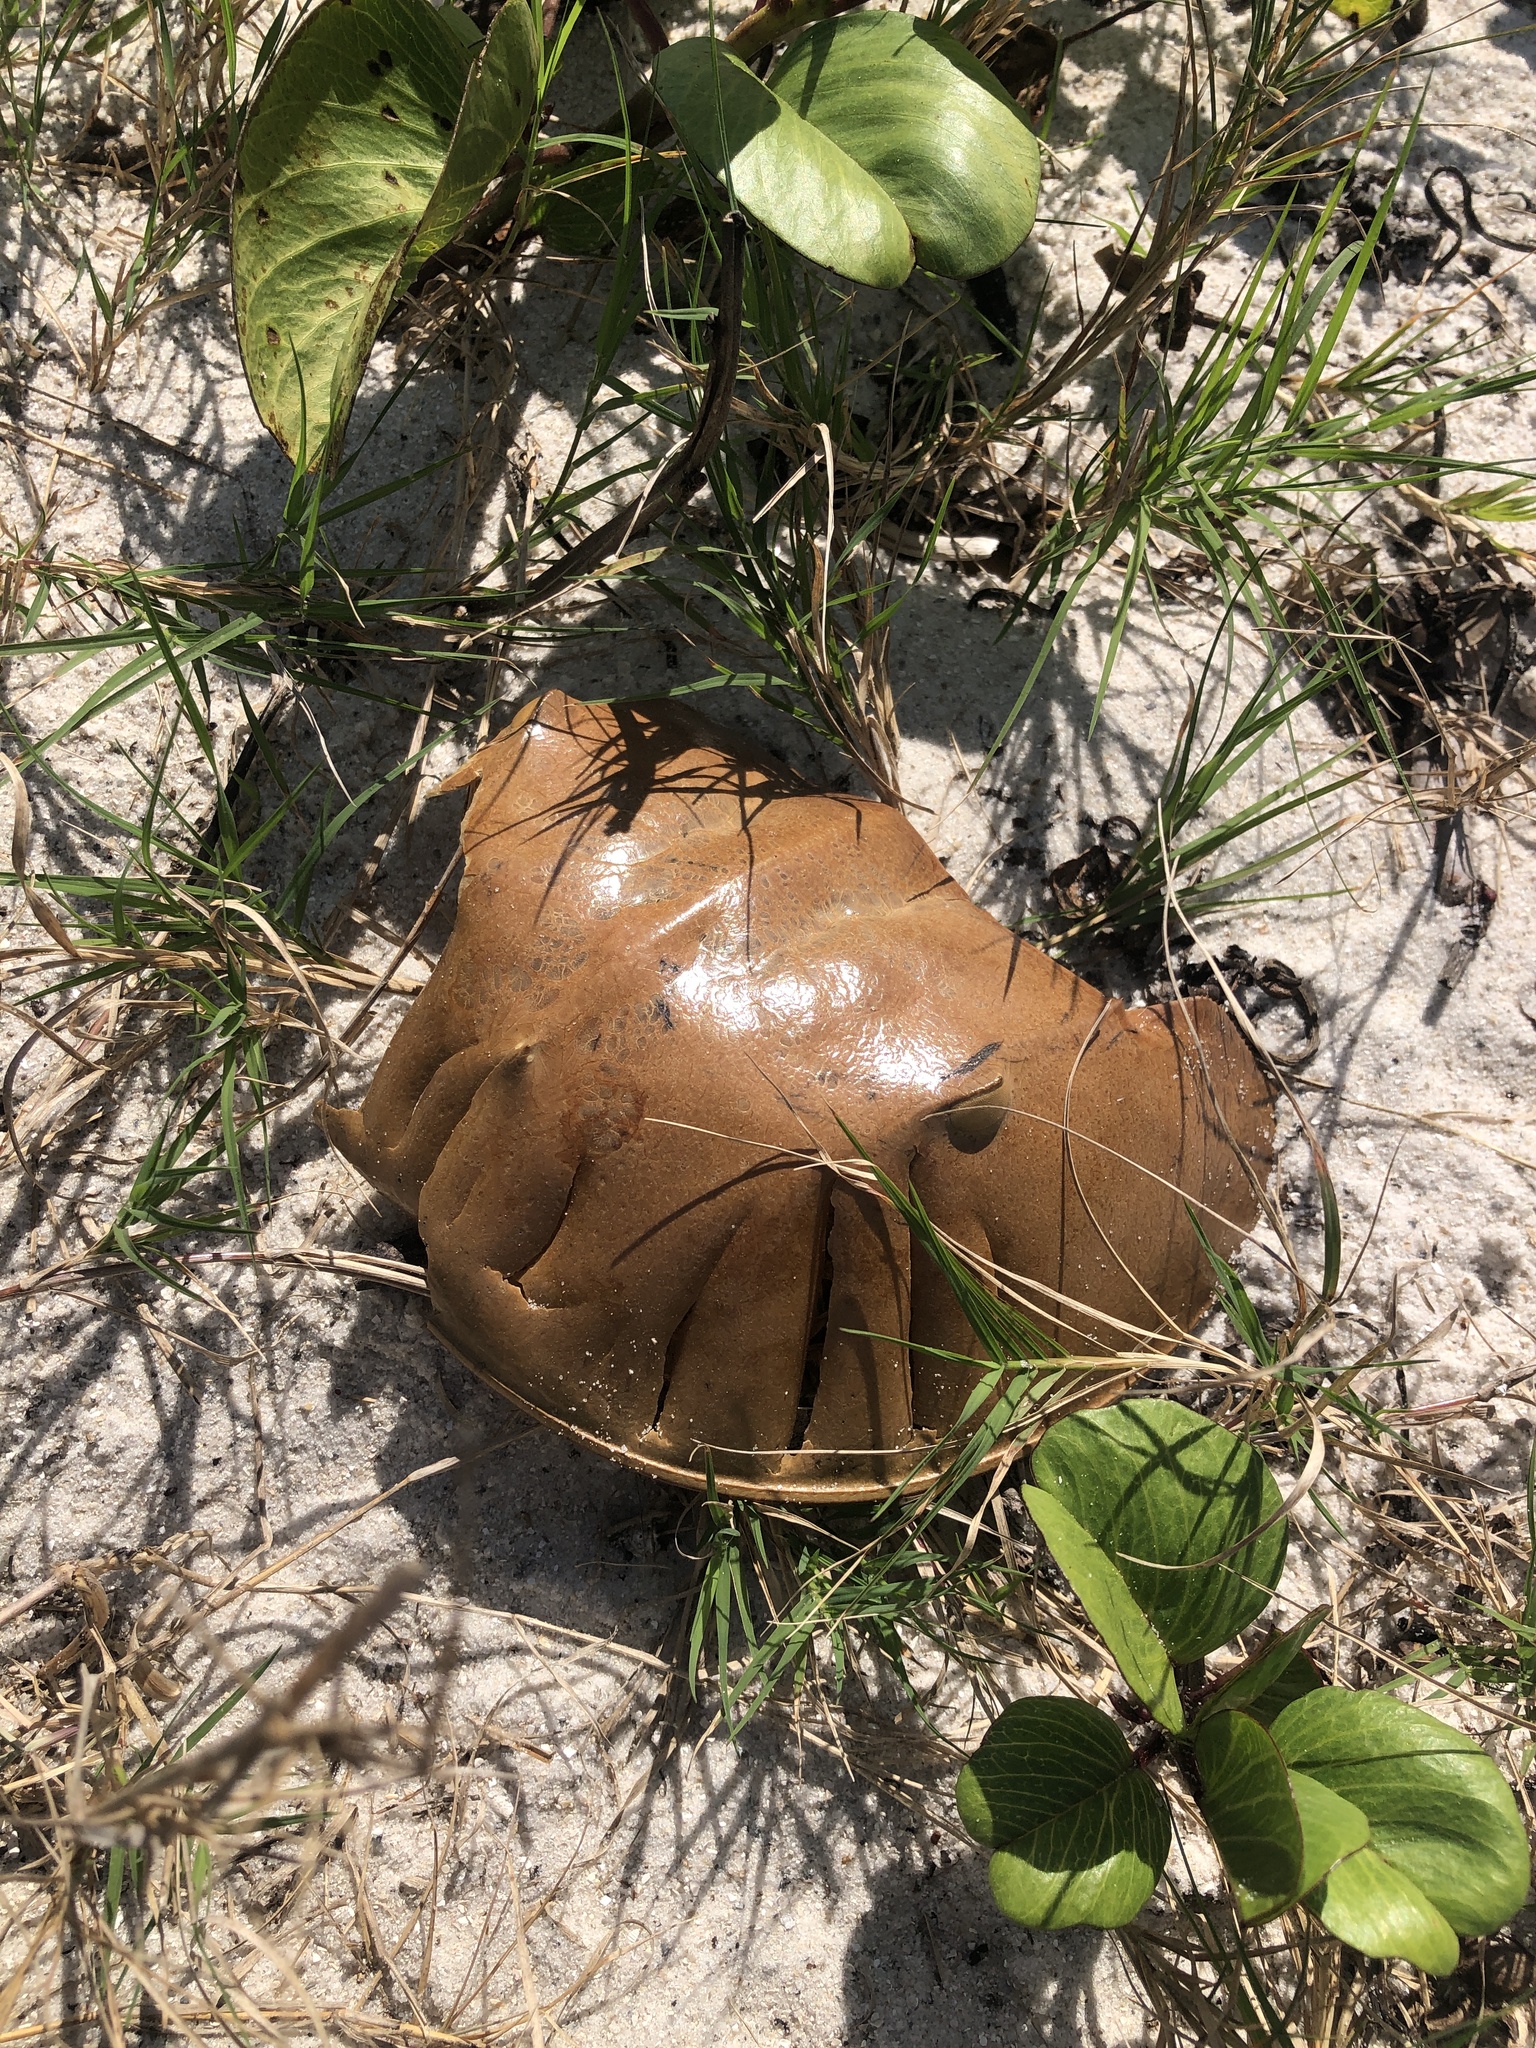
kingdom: Animalia
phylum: Arthropoda
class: Merostomata
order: Xiphosurida
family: Limulidae
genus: Limulus
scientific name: Limulus polyphemus
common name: Horseshoe crab
